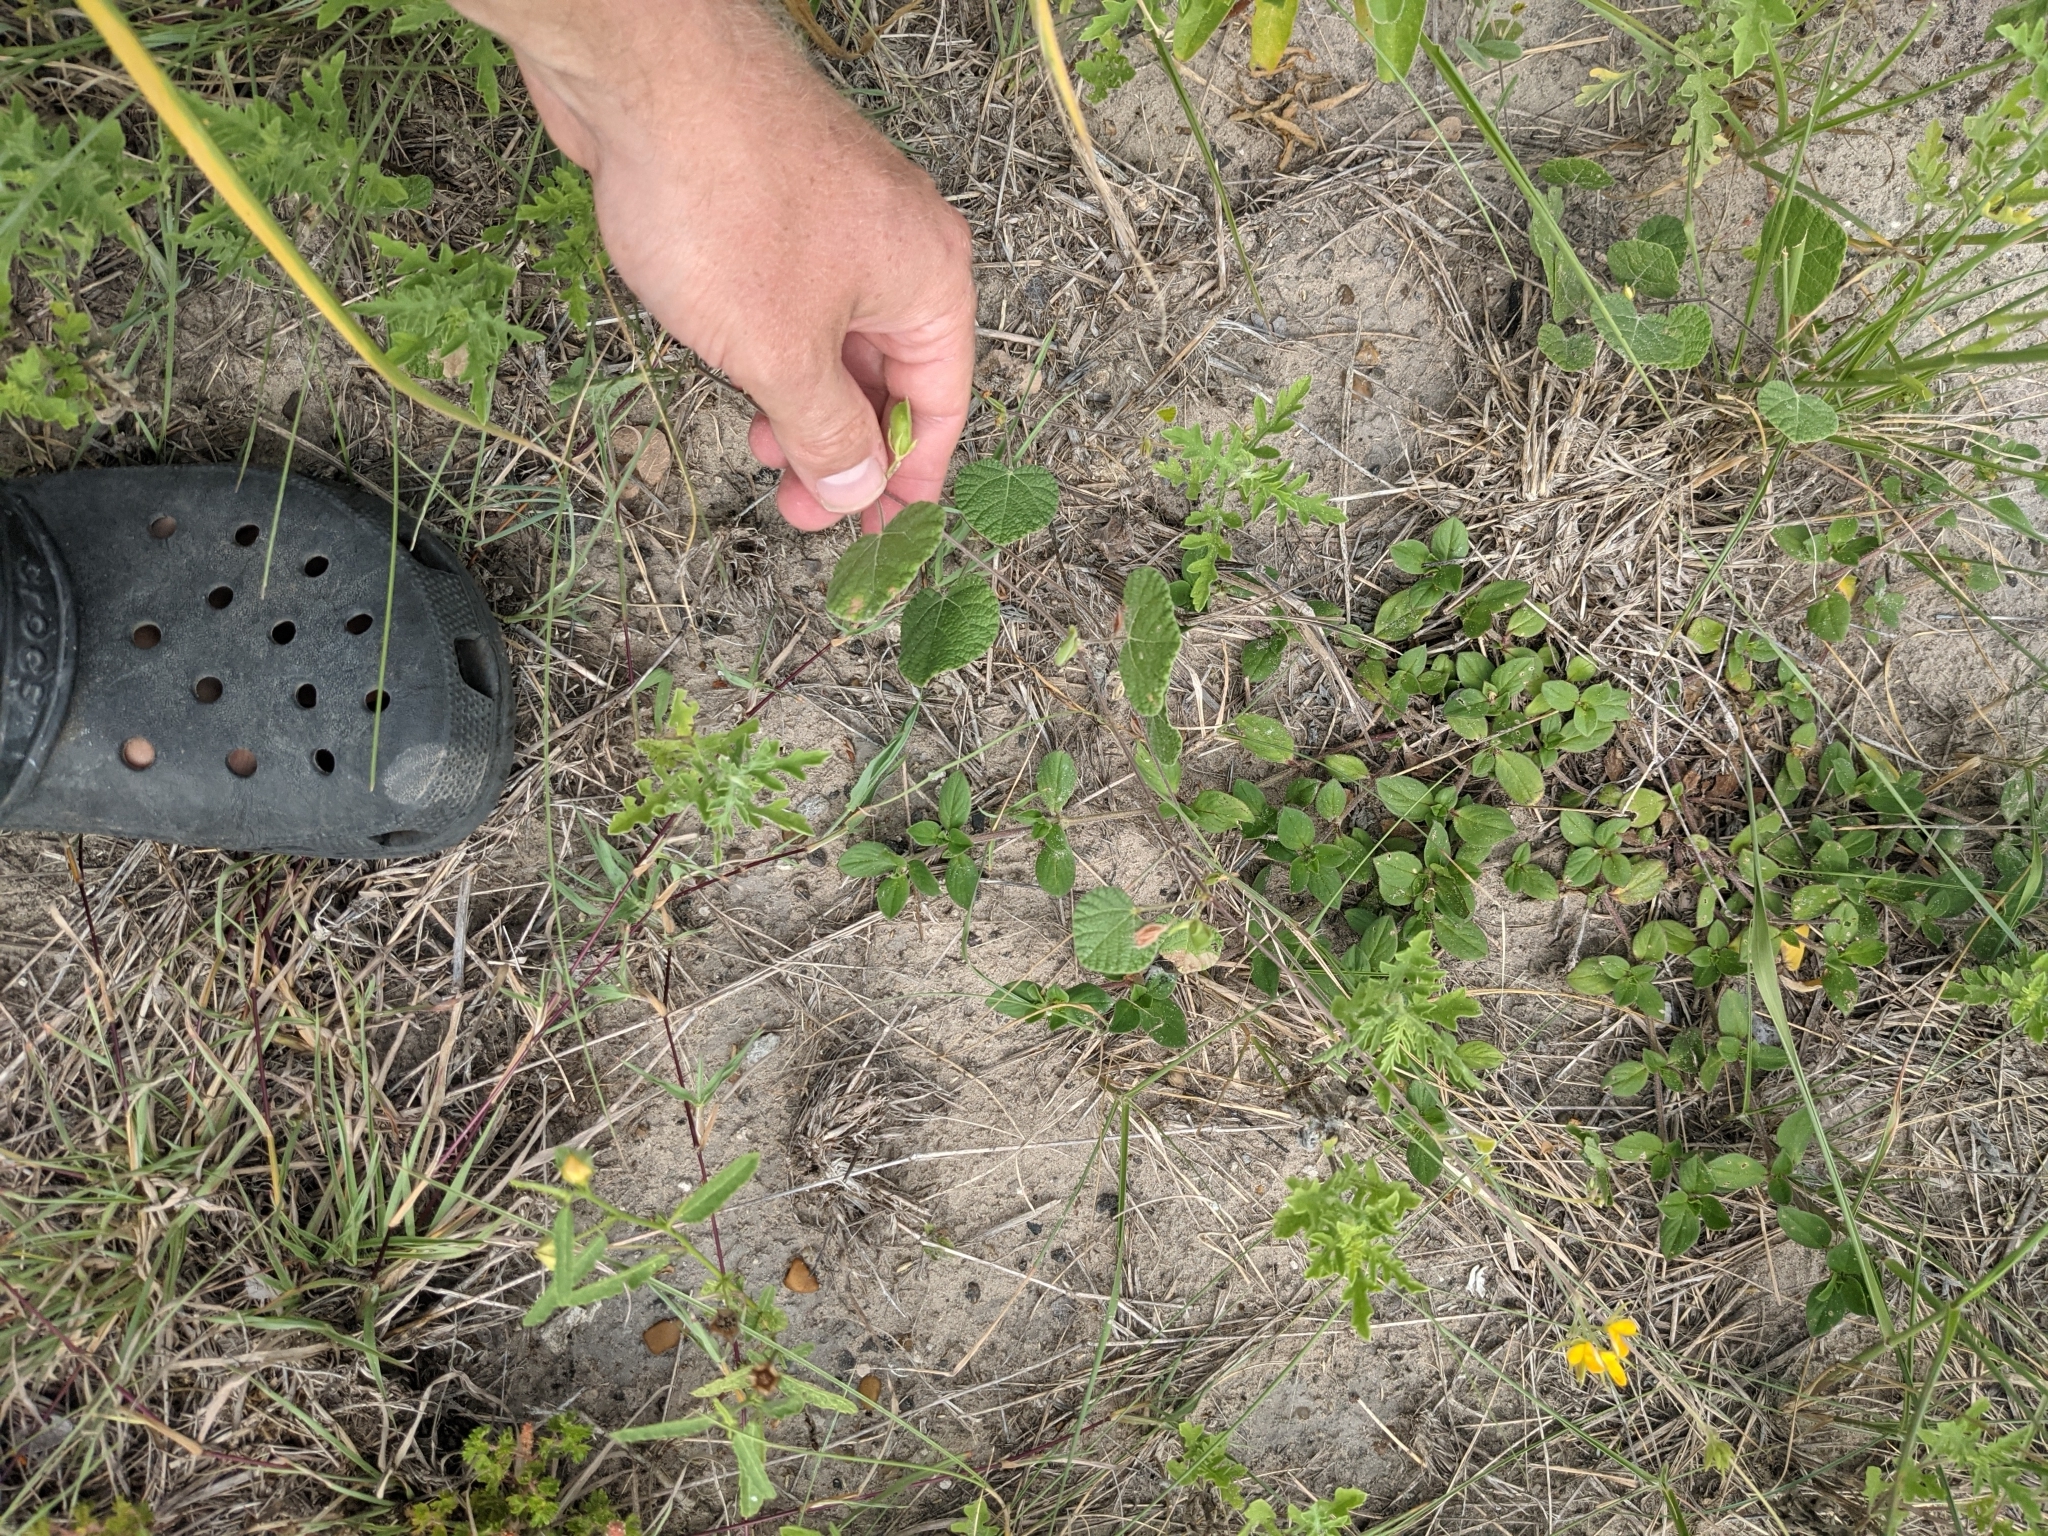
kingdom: Plantae
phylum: Tracheophyta
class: Magnoliopsida
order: Fabales
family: Fabaceae
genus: Rhynchosia
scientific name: Rhynchosia americana
